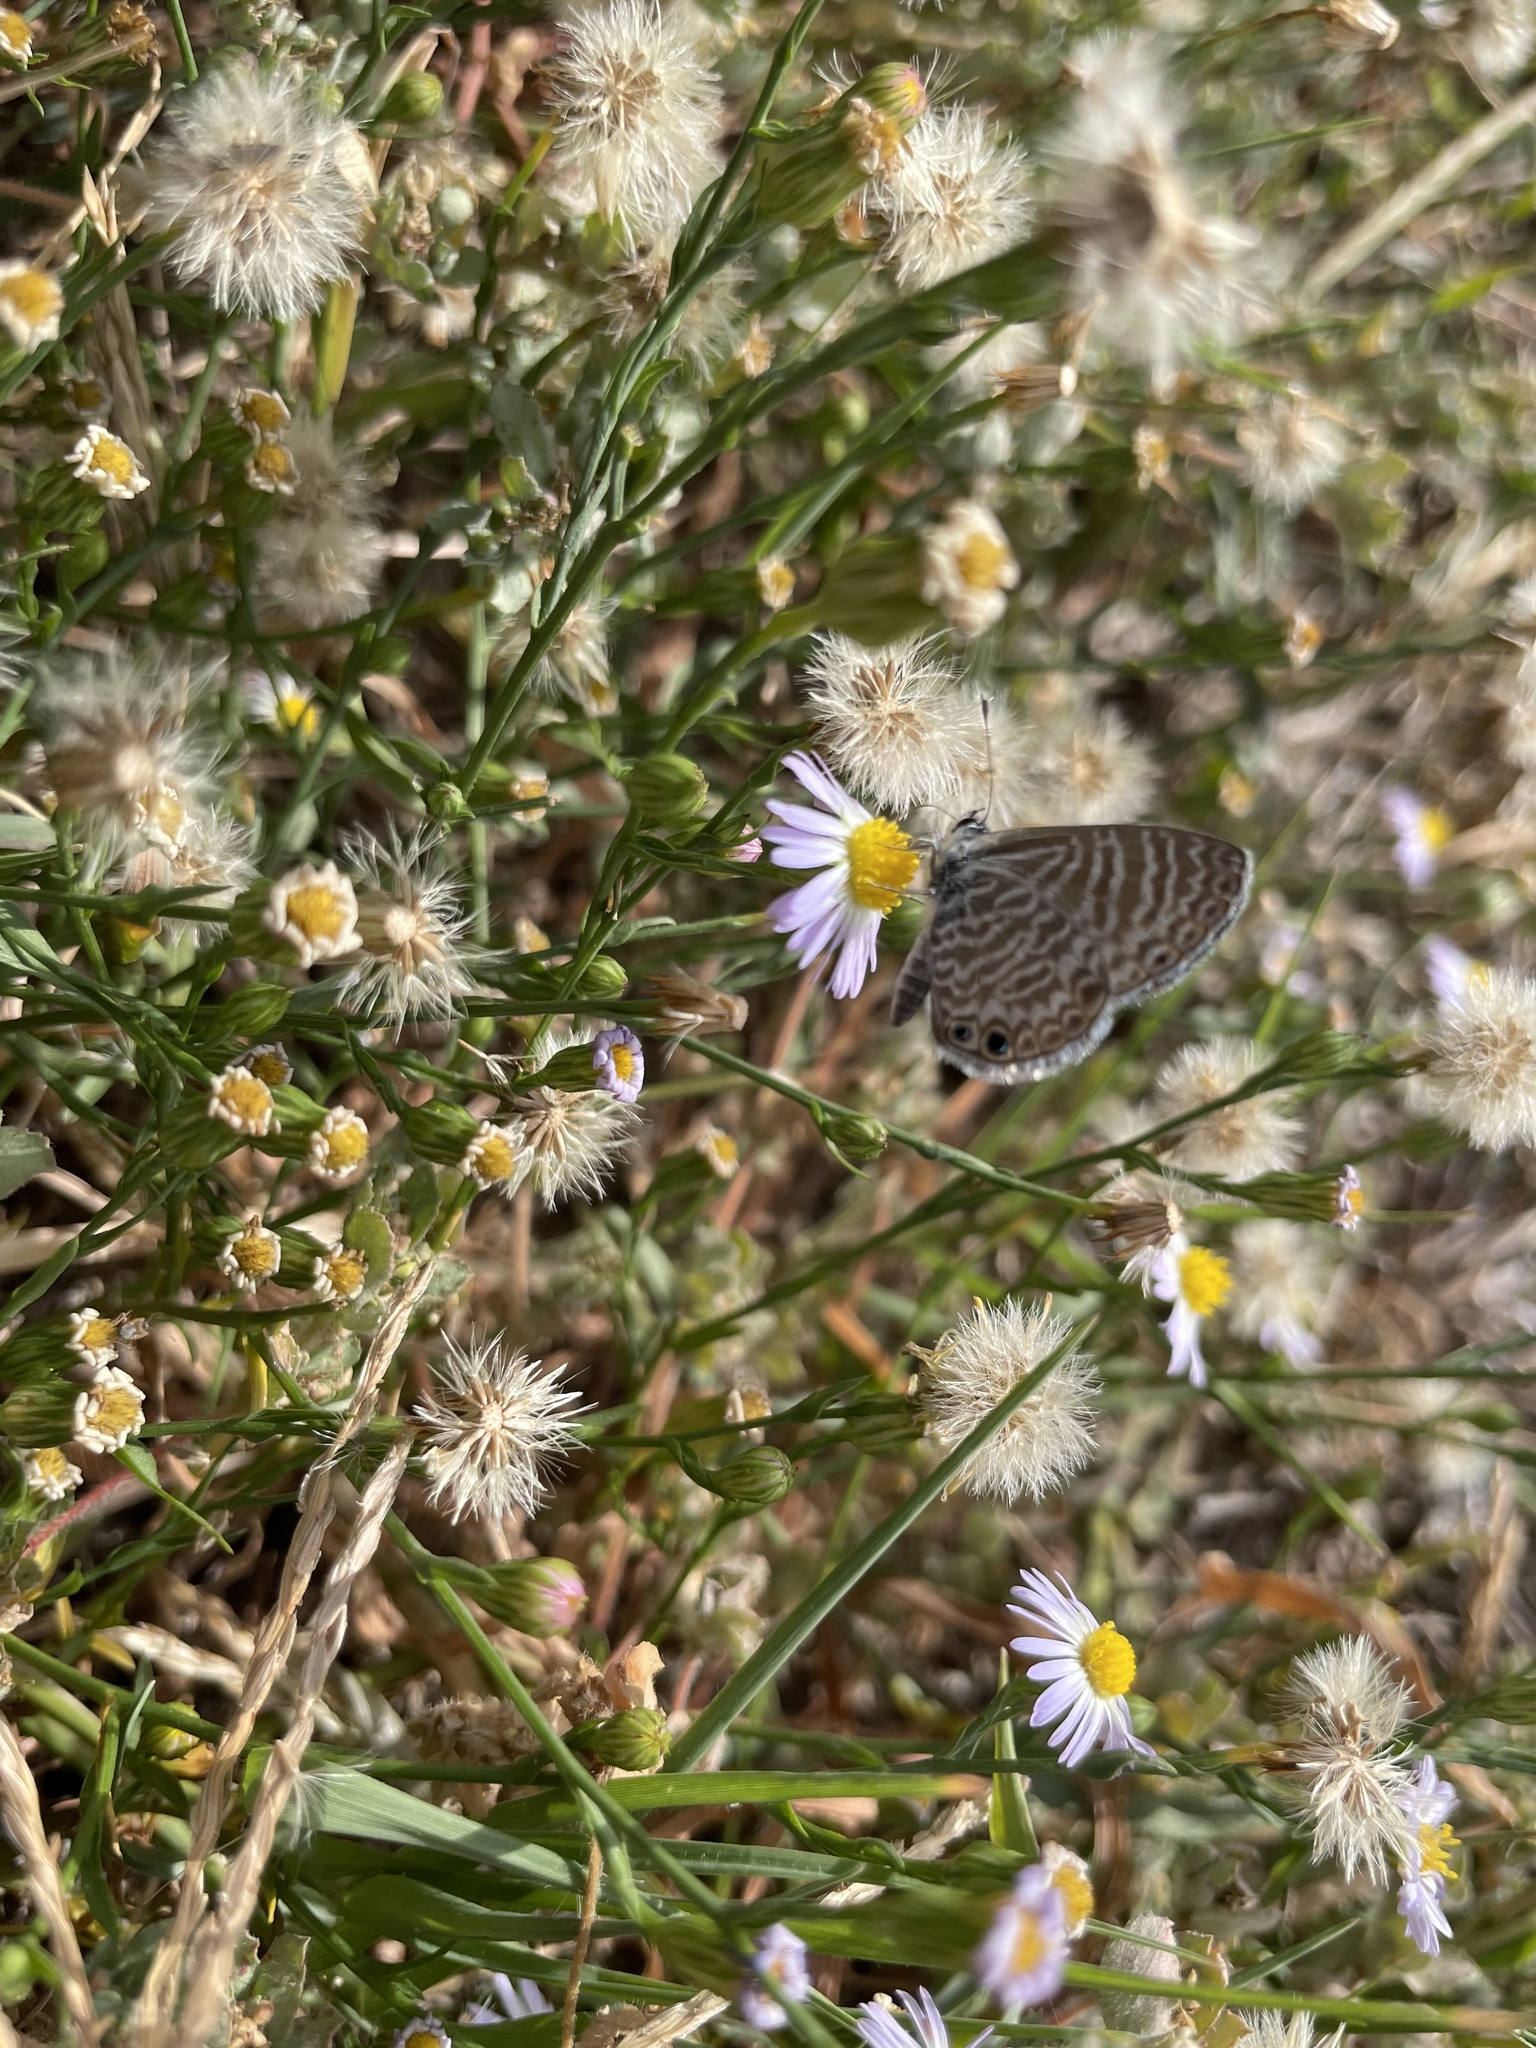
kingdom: Animalia
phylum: Arthropoda
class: Insecta
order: Lepidoptera
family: Lycaenidae
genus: Leptotes
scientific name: Leptotes marina
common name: Marine blue
